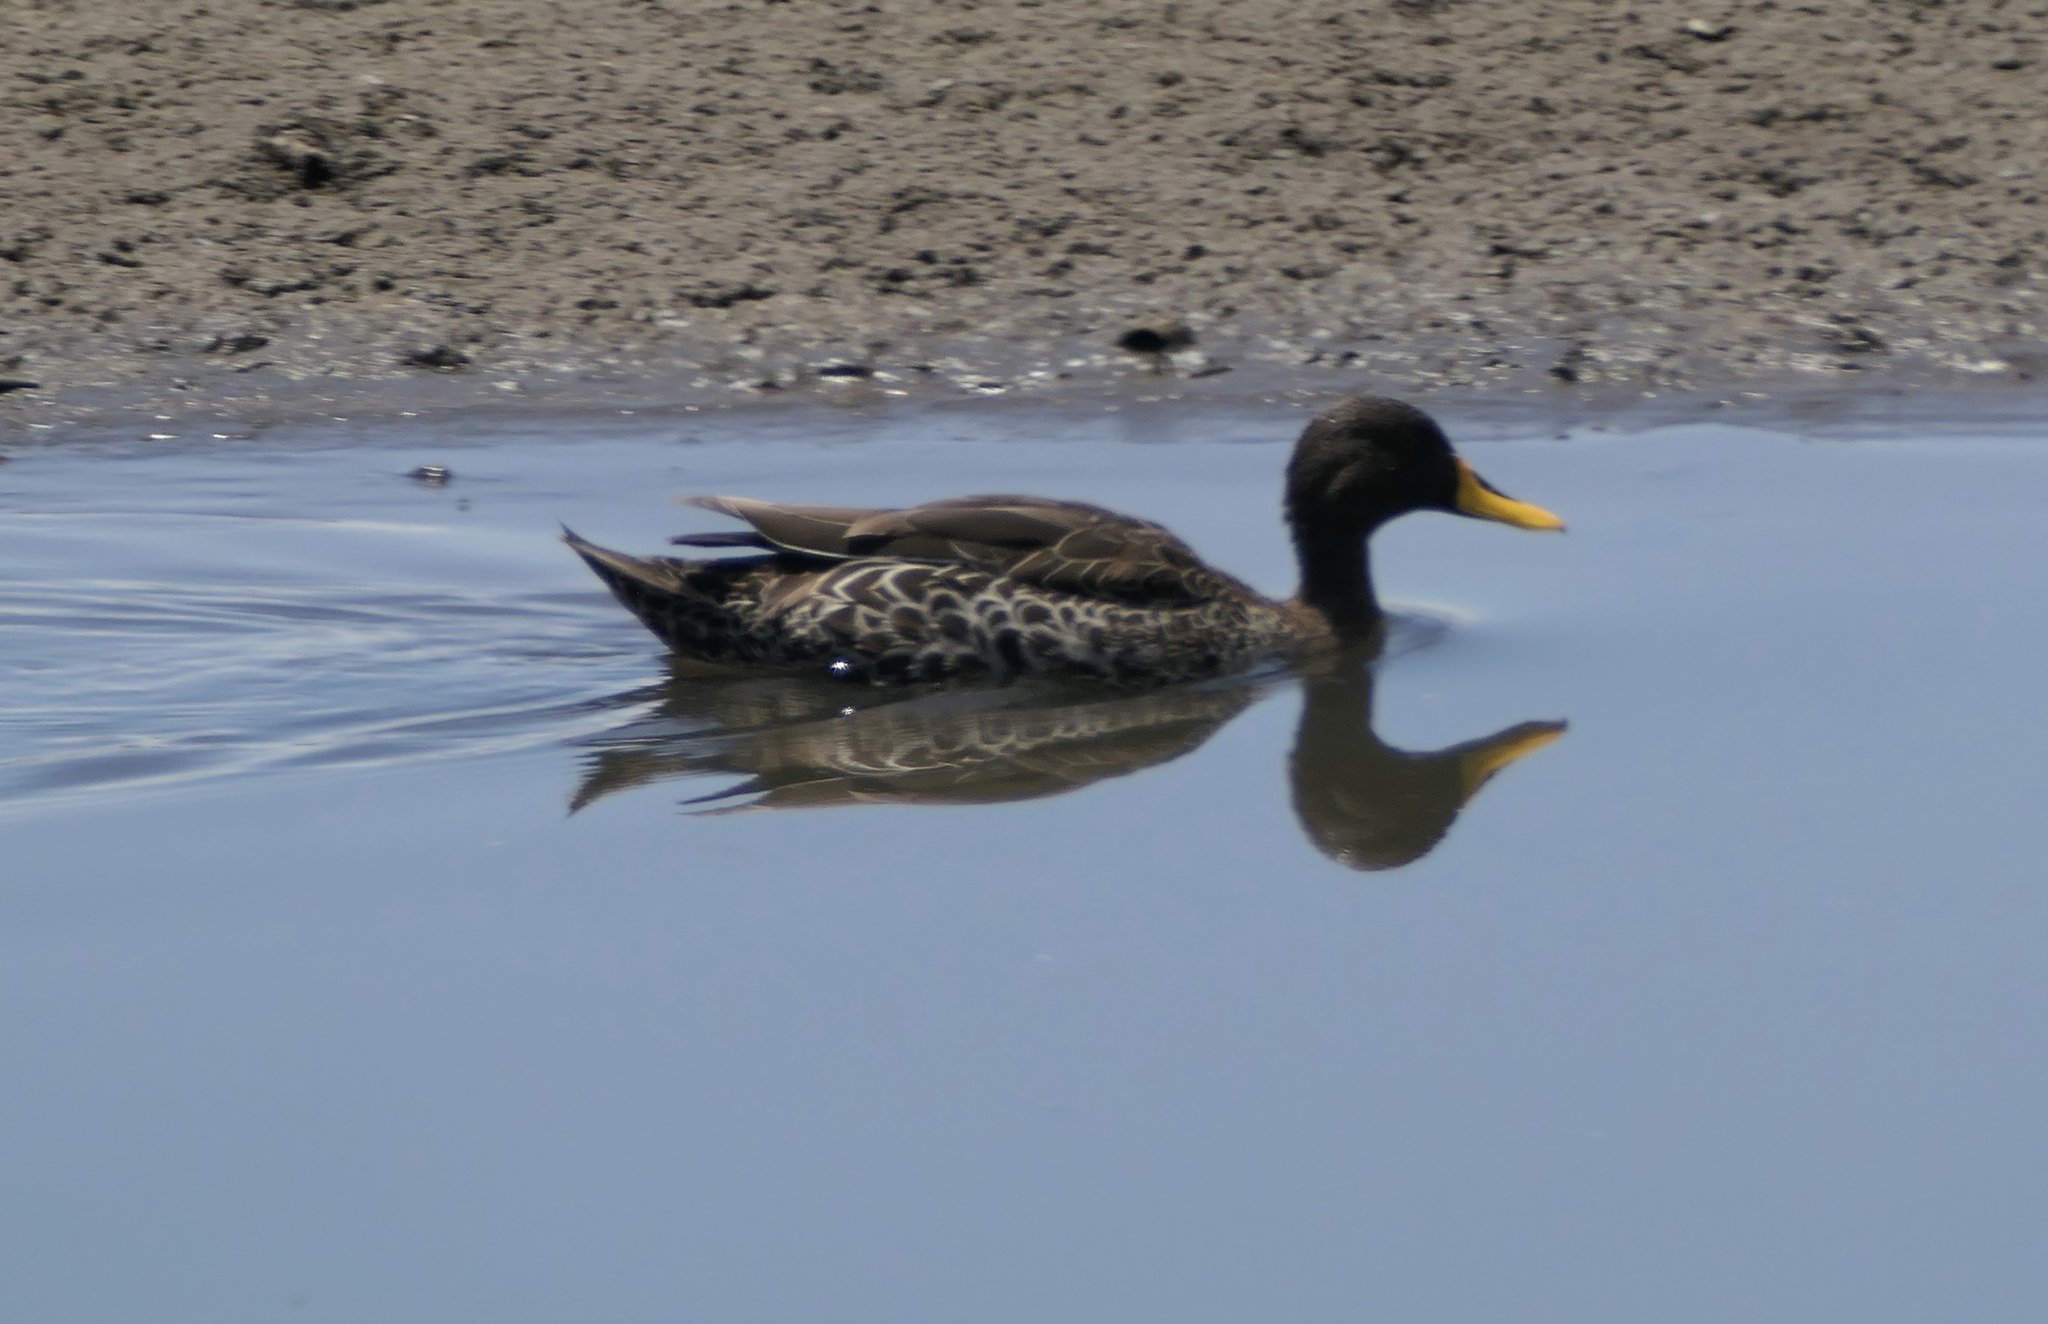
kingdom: Animalia
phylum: Chordata
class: Aves
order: Anseriformes
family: Anatidae
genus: Anas
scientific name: Anas undulata
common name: Yellow-billed duck
